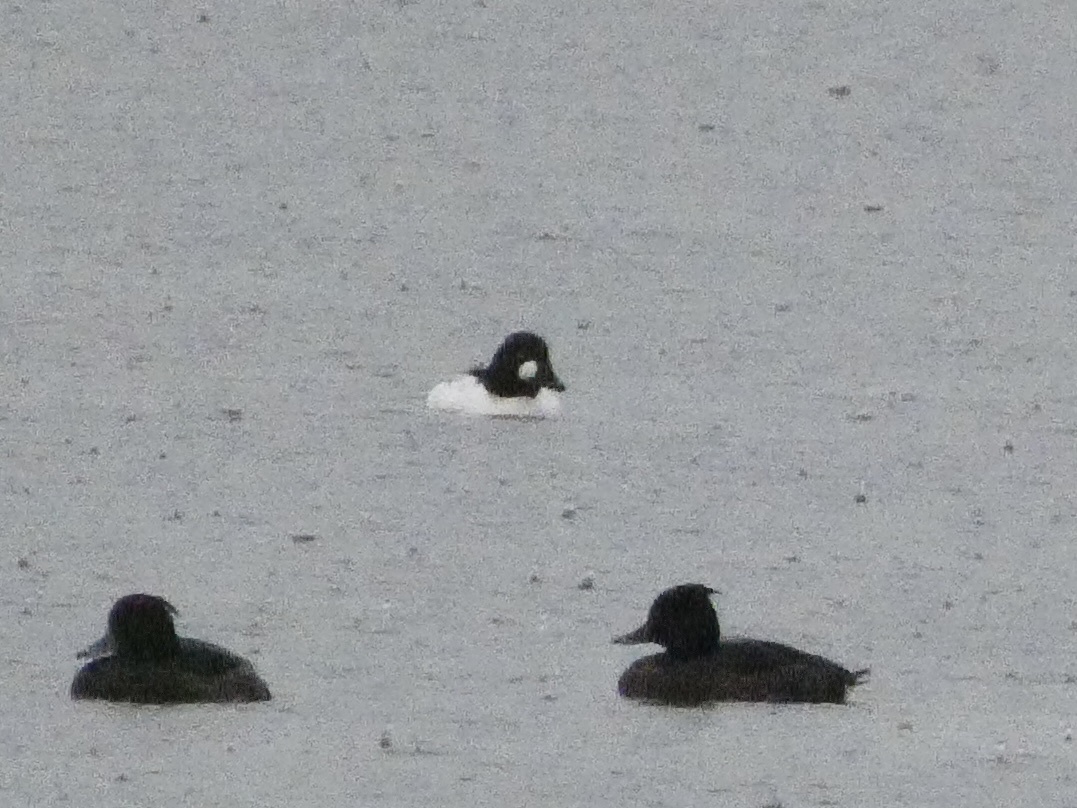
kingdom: Animalia
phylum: Chordata
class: Aves
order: Anseriformes
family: Anatidae
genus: Bucephala
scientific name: Bucephala clangula
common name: Common goldeneye
